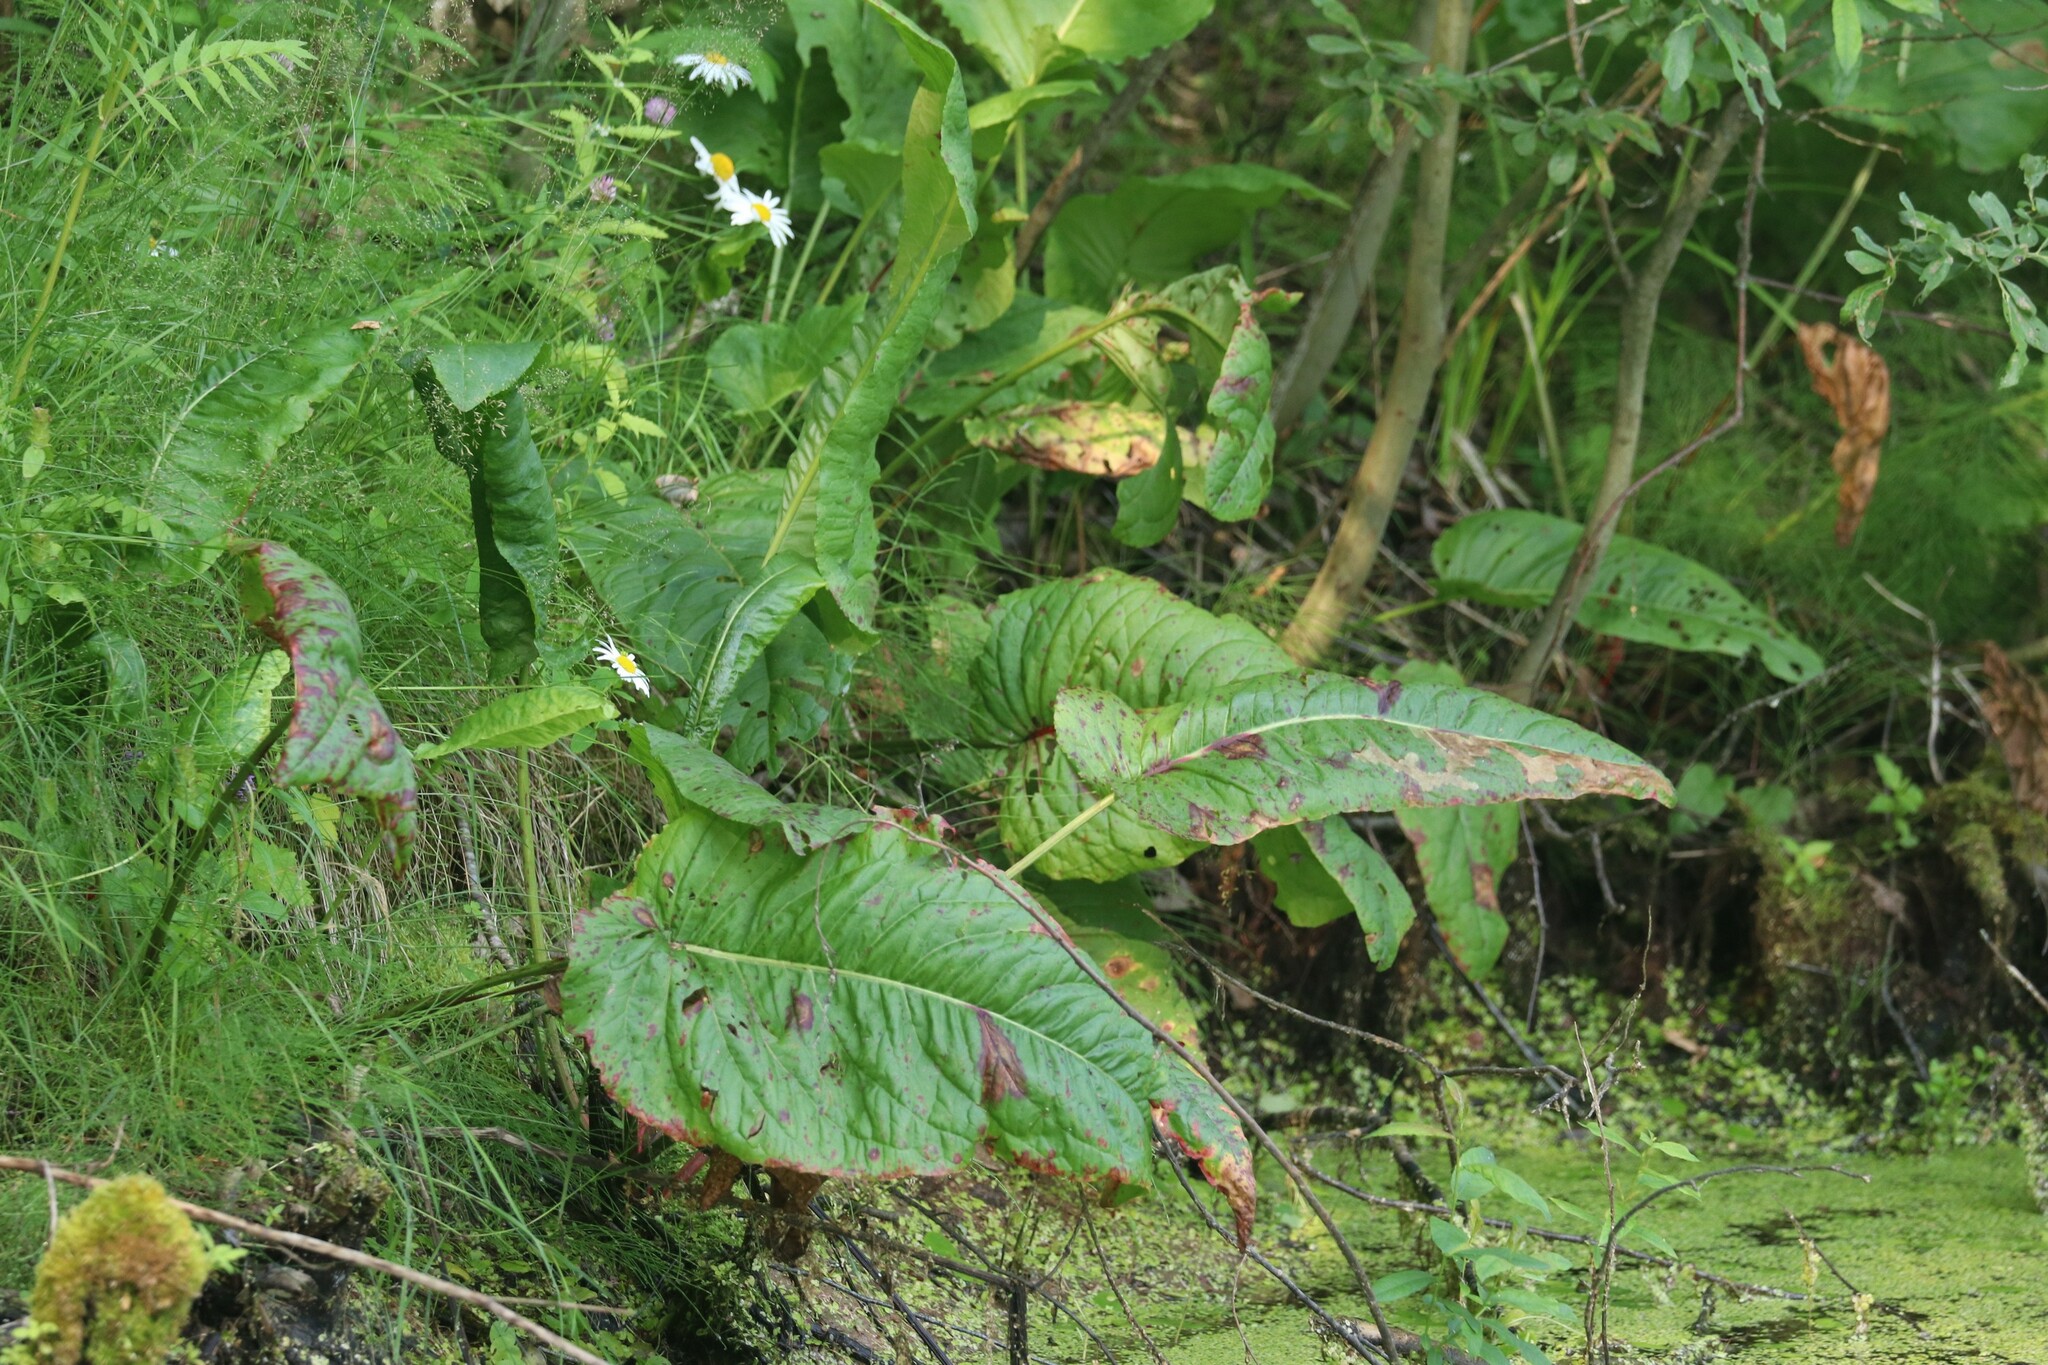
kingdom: Plantae
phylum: Tracheophyta
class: Magnoliopsida
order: Caryophyllales
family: Polygonaceae
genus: Rumex
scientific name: Rumex aquaticus
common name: Scottish dock
